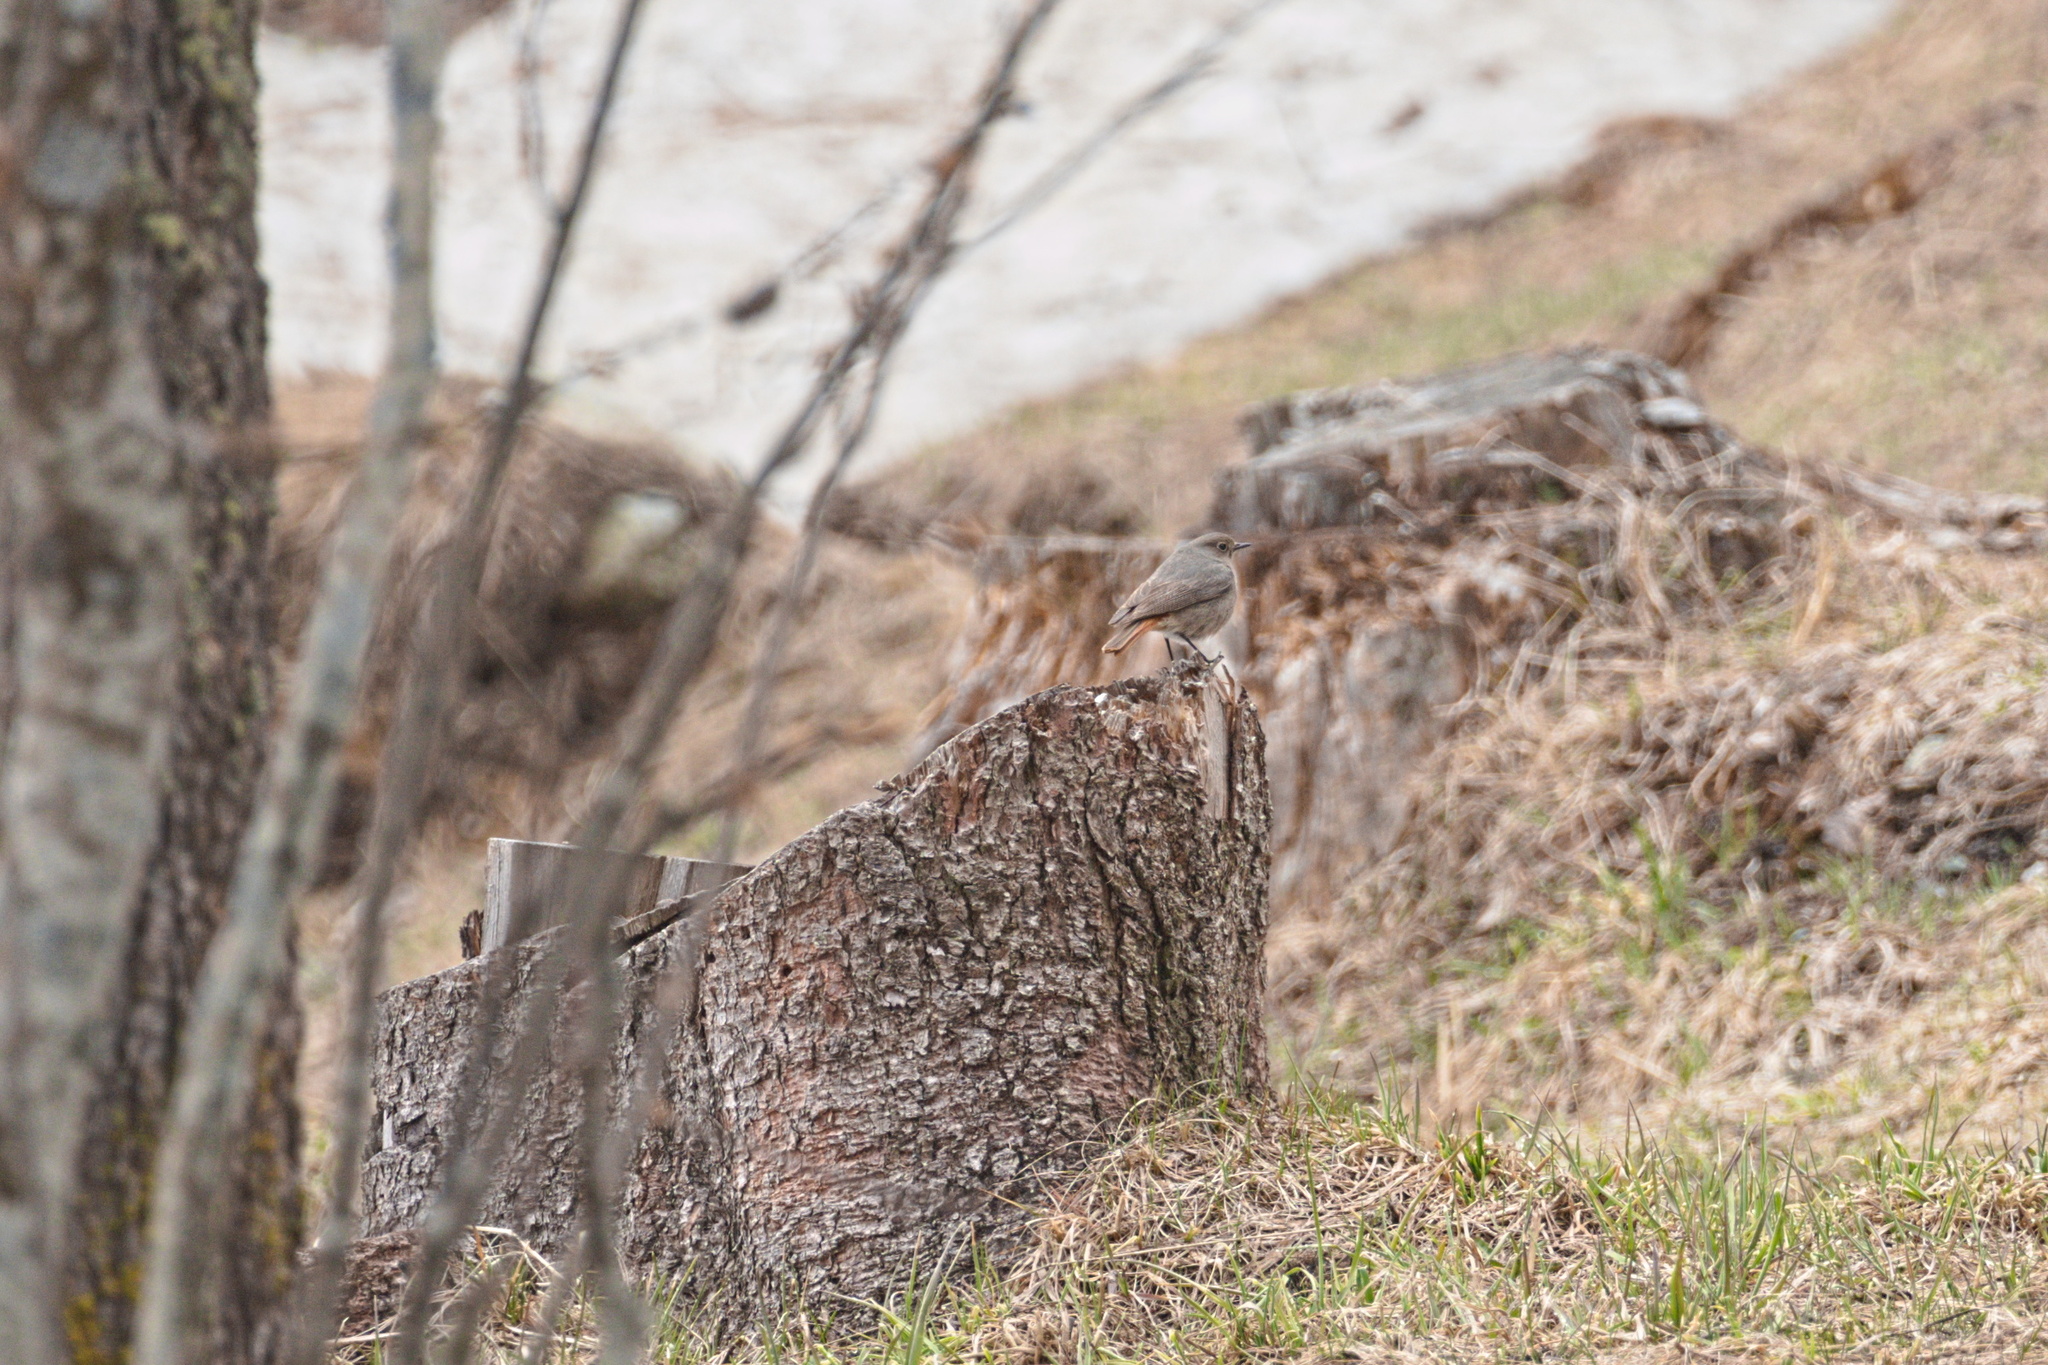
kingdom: Animalia
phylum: Chordata
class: Aves
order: Passeriformes
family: Muscicapidae
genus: Phoenicurus
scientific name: Phoenicurus ochruros
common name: Black redstart
